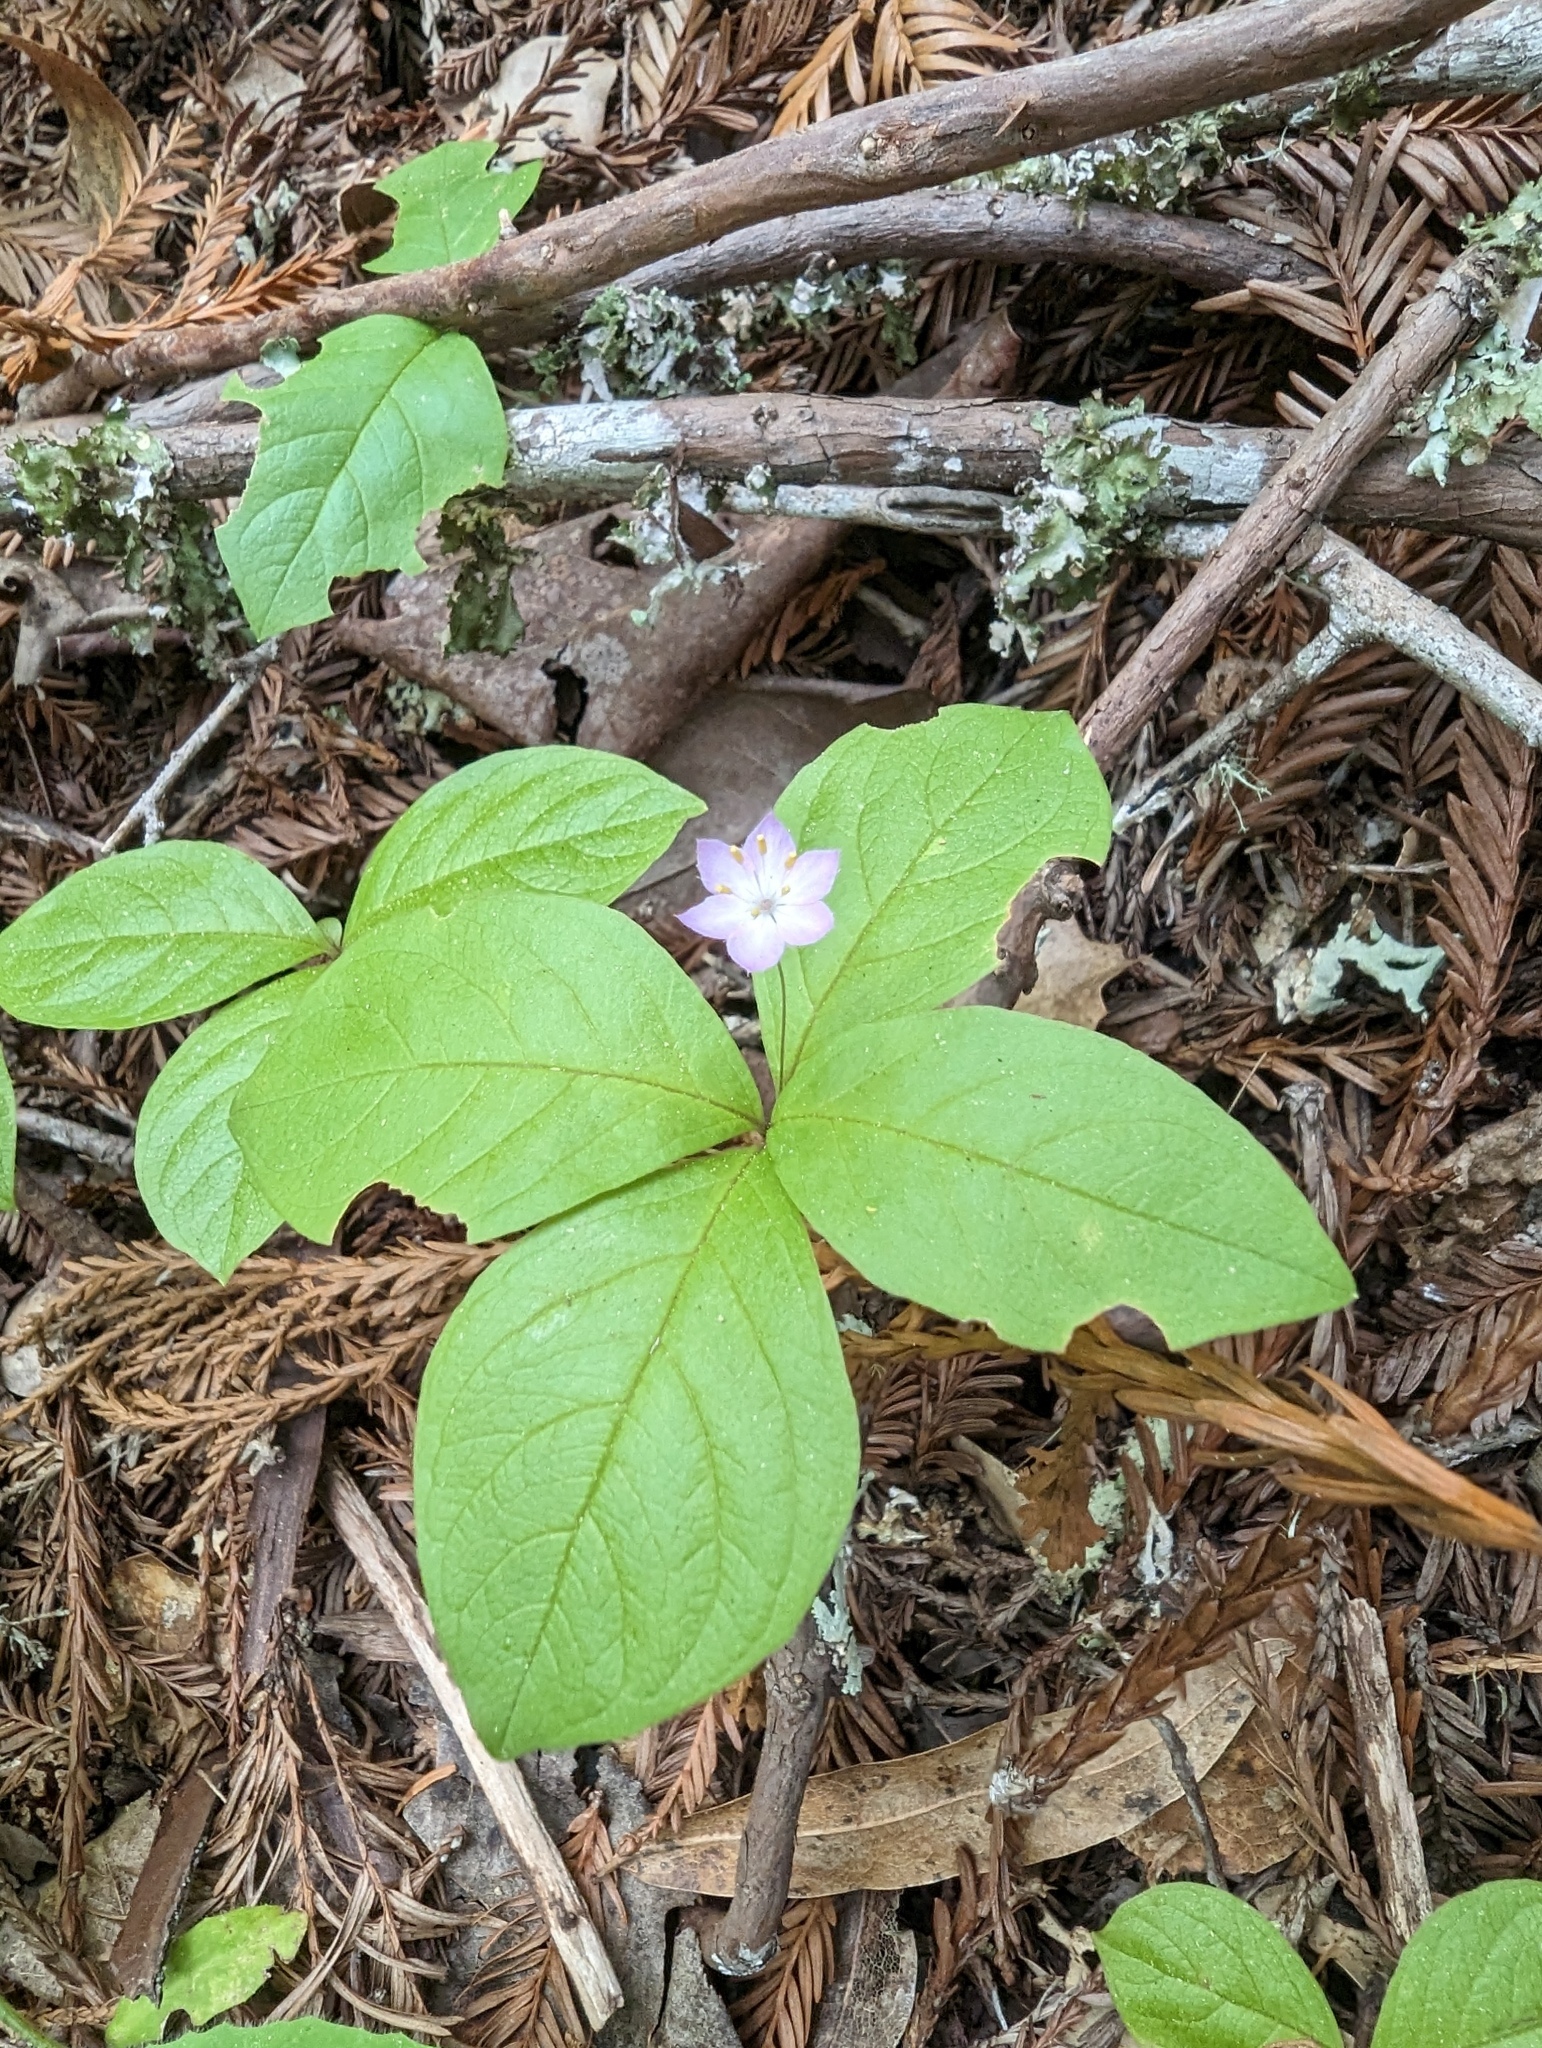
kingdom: Plantae
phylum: Tracheophyta
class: Magnoliopsida
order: Ericales
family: Primulaceae
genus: Lysimachia
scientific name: Lysimachia latifolia
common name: Pacific starflower
